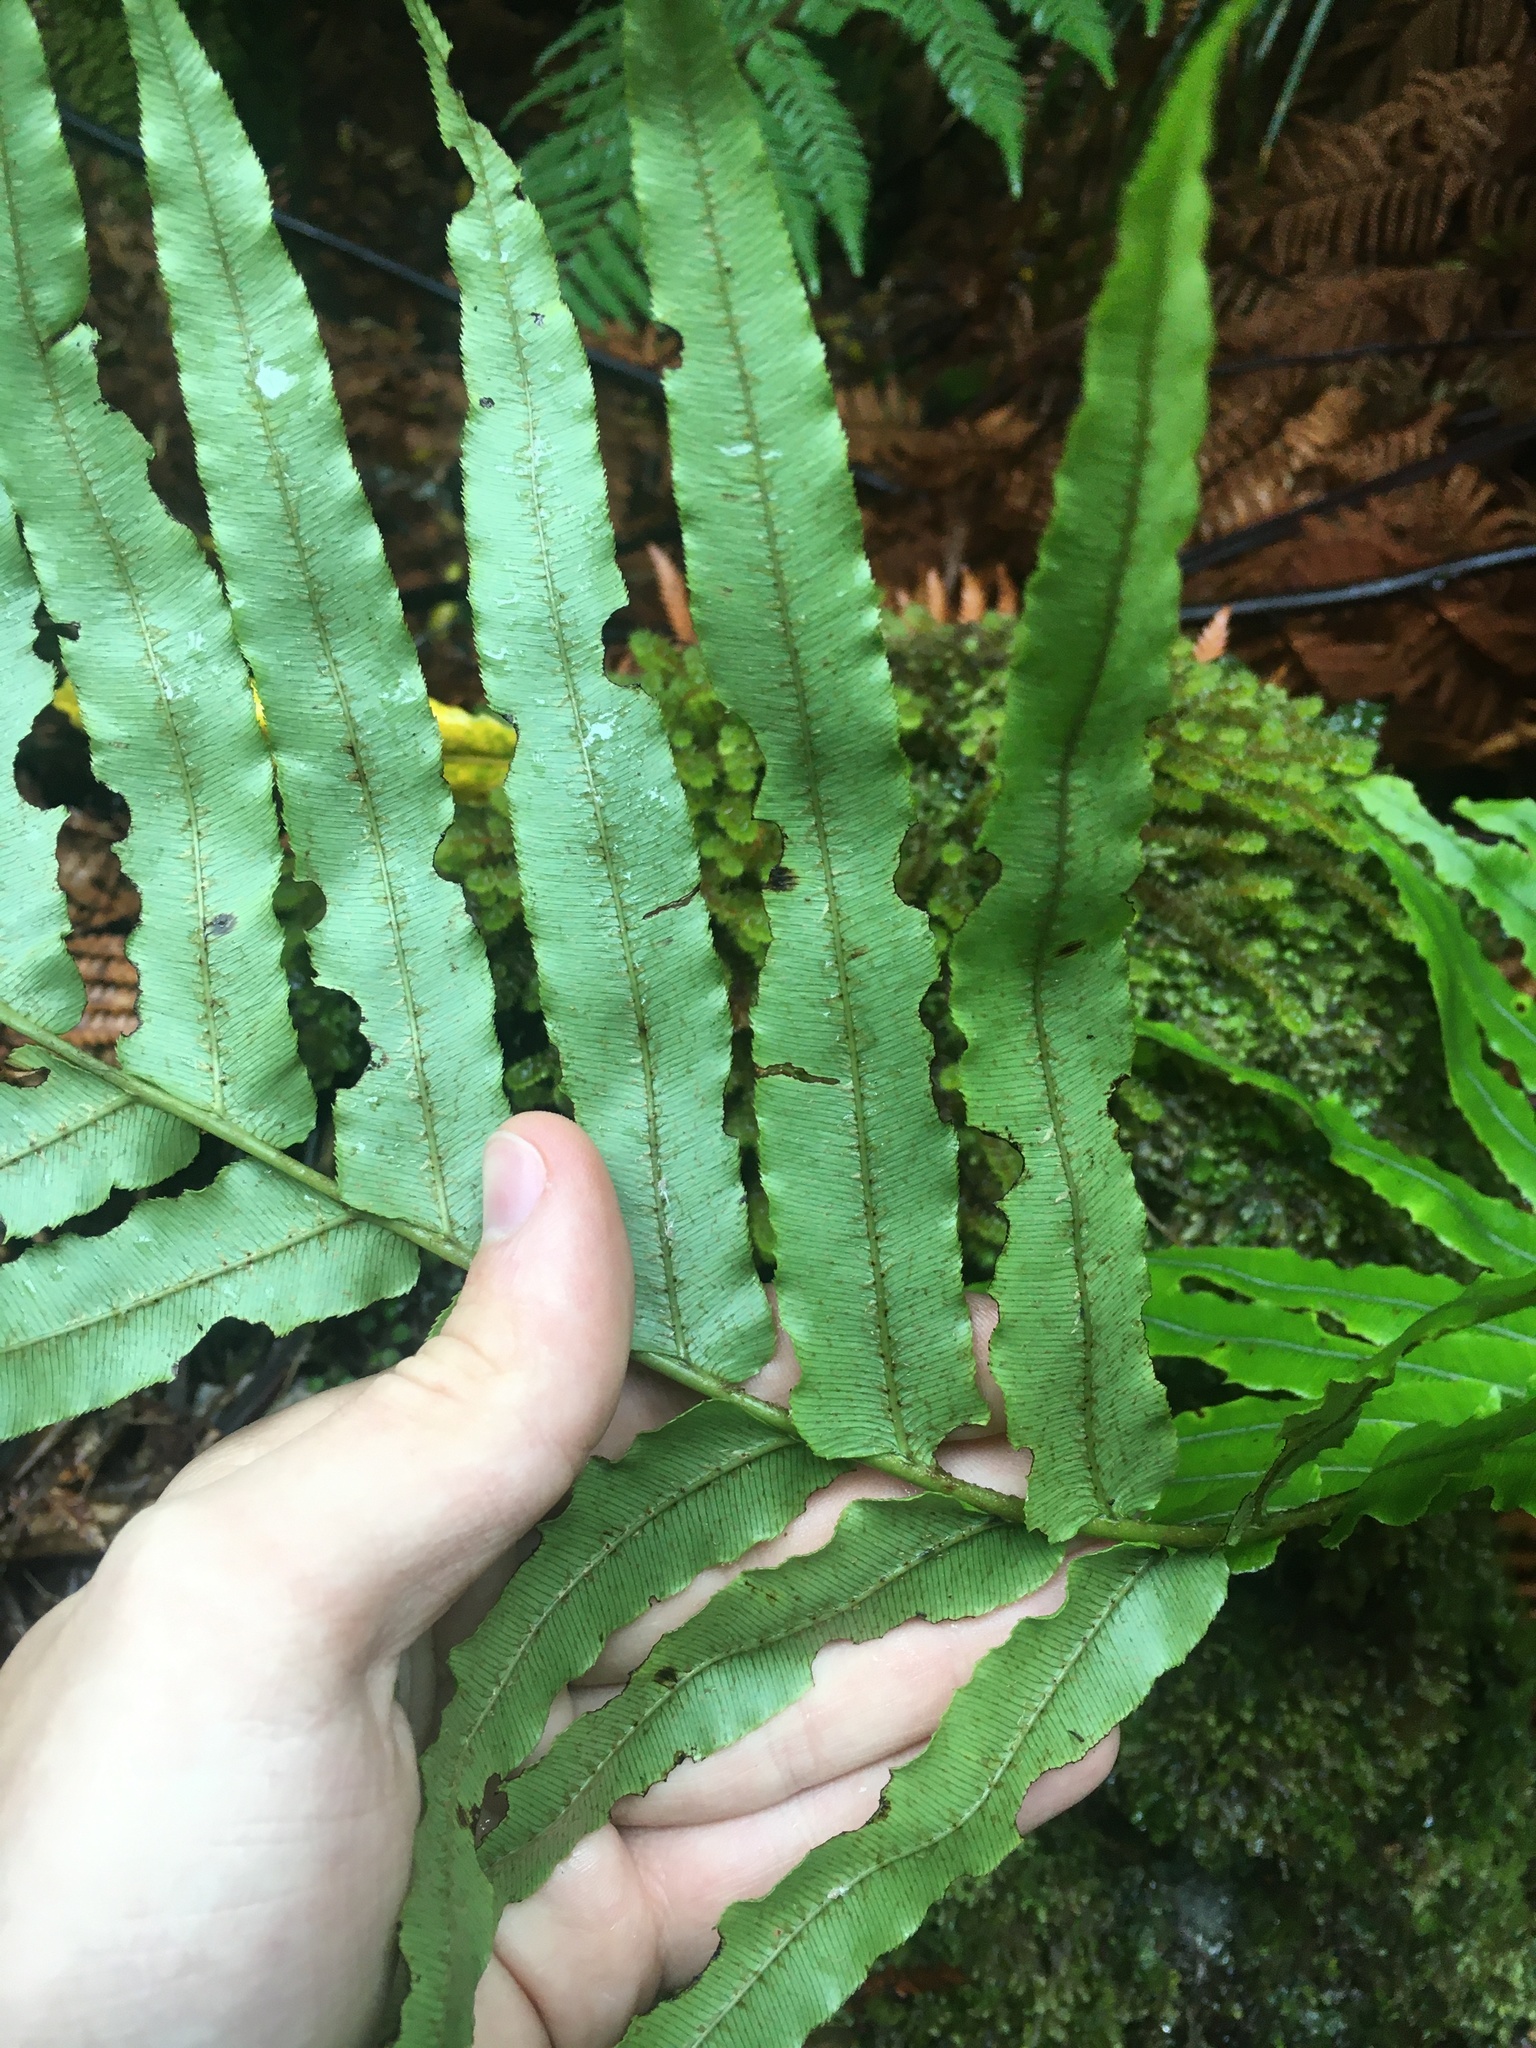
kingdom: Plantae
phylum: Tracheophyta
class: Polypodiopsida
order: Polypodiales
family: Blechnaceae
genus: Parablechnum
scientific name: Parablechnum novae-zelandiae
